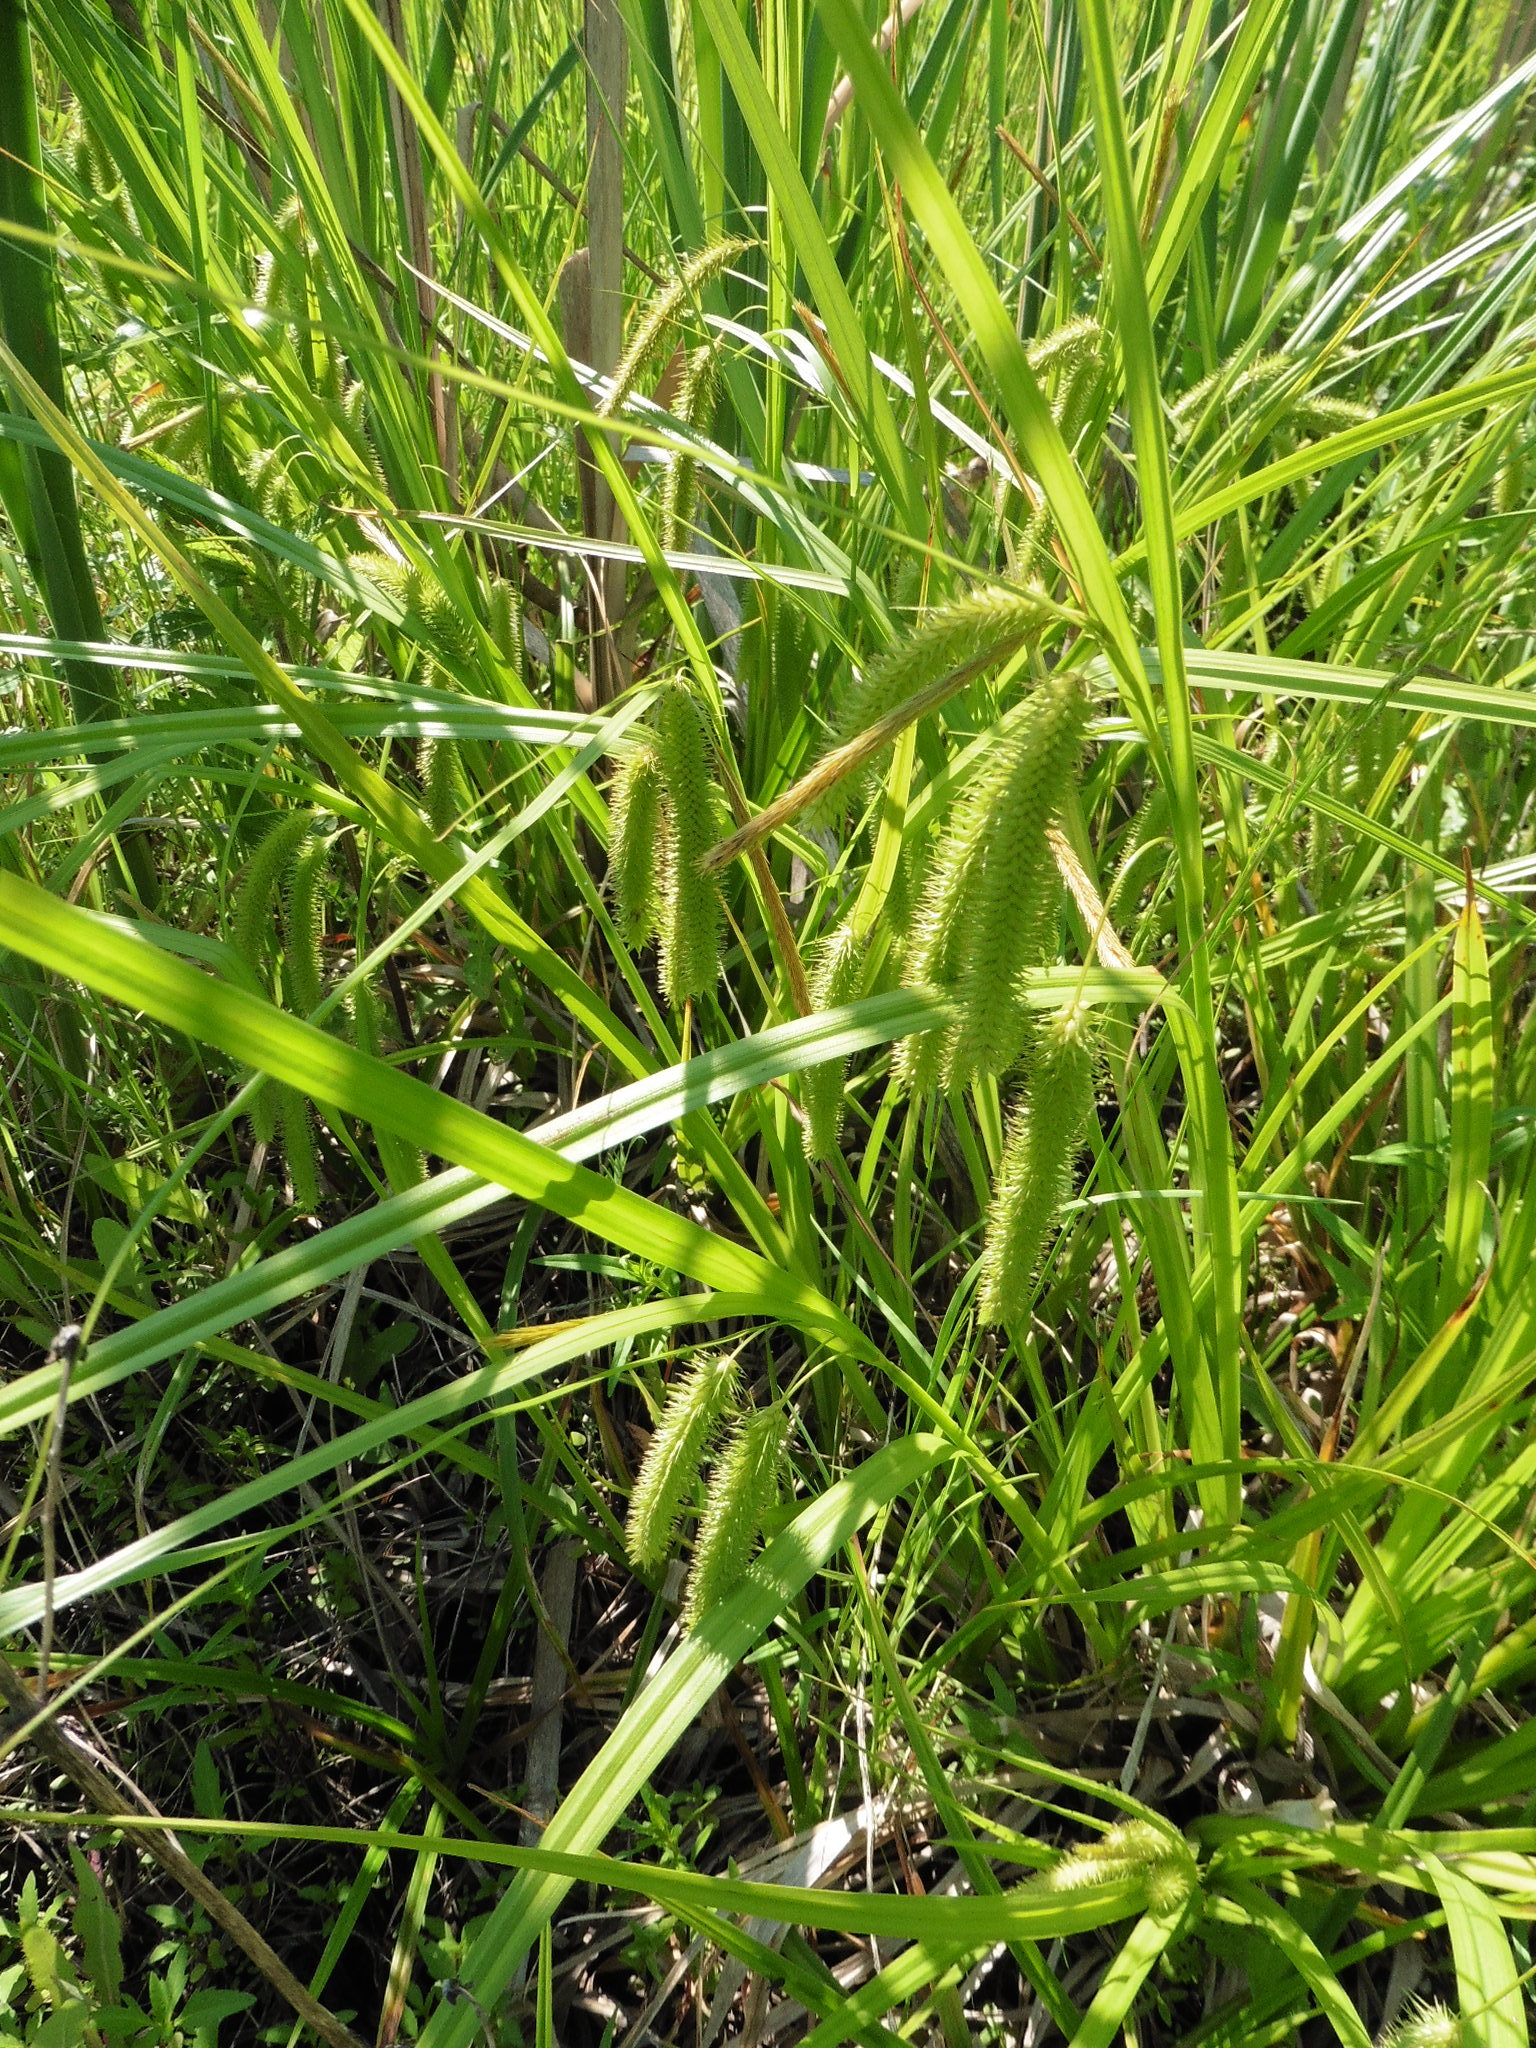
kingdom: Plantae
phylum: Tracheophyta
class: Liliopsida
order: Poales
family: Cyperaceae
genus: Carex
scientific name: Carex pseudocyperus
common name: Cyperus sedge
